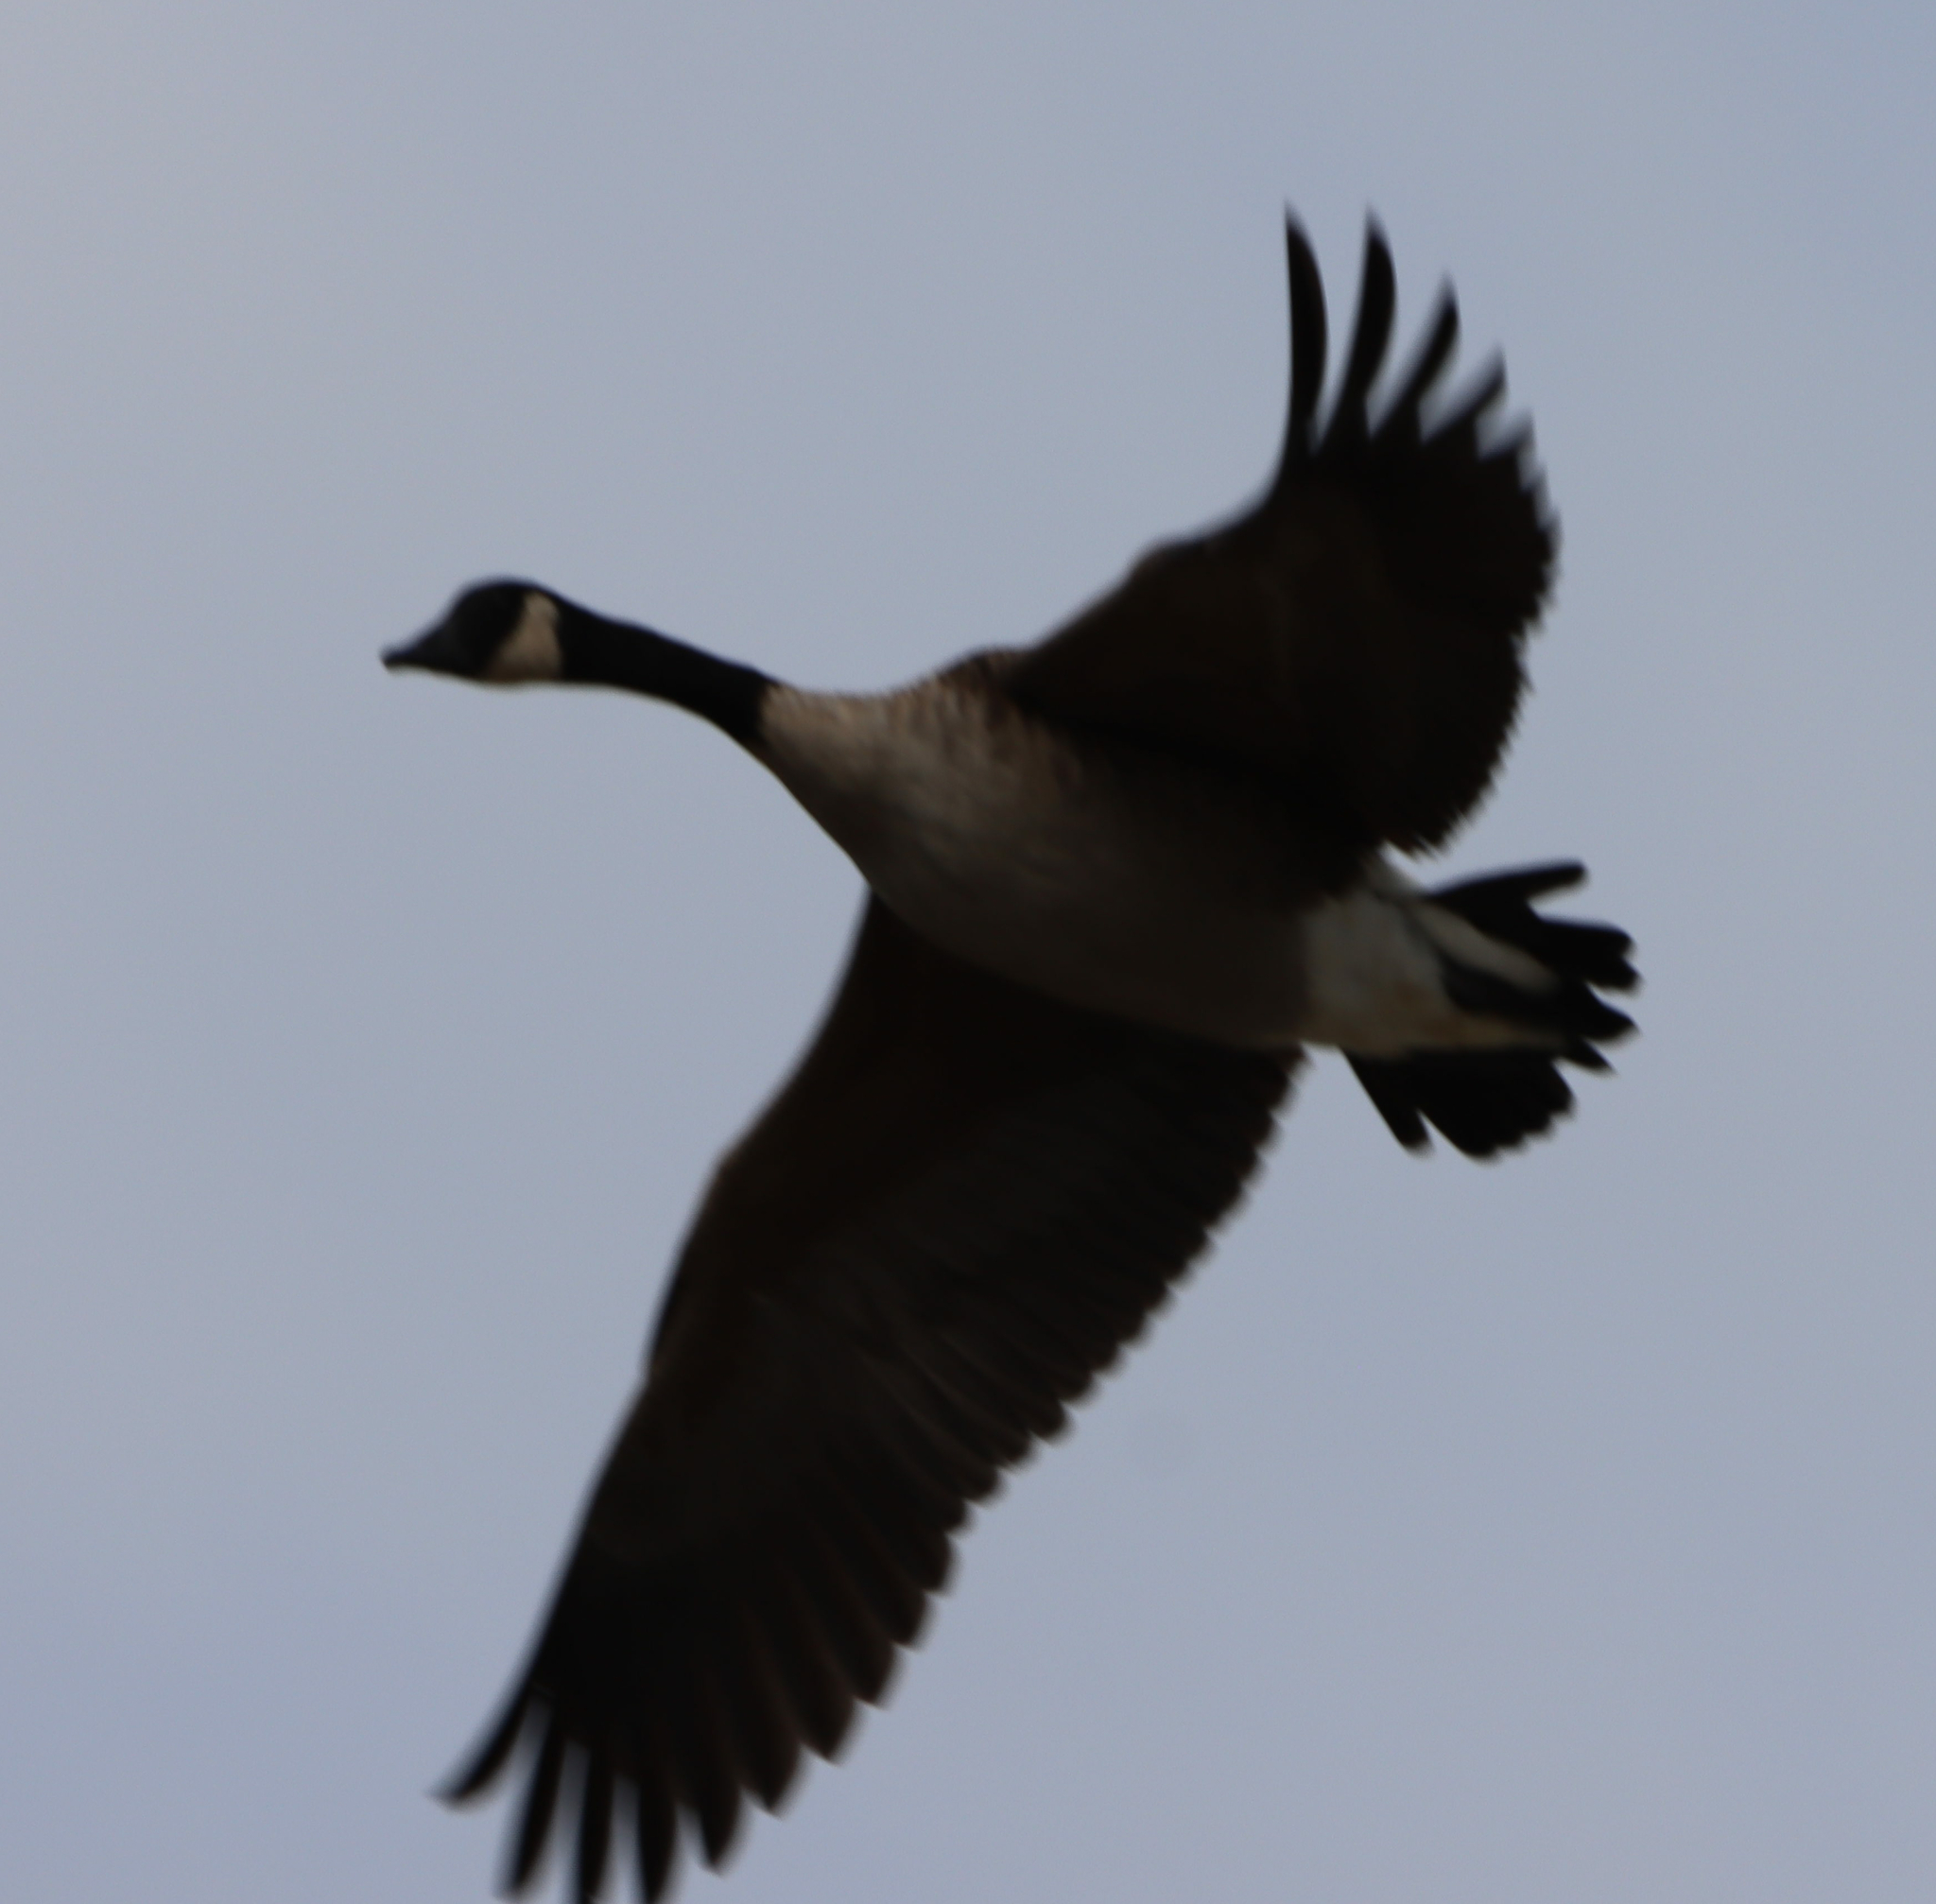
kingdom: Animalia
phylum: Chordata
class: Aves
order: Anseriformes
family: Anatidae
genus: Branta
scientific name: Branta canadensis
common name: Canada goose
